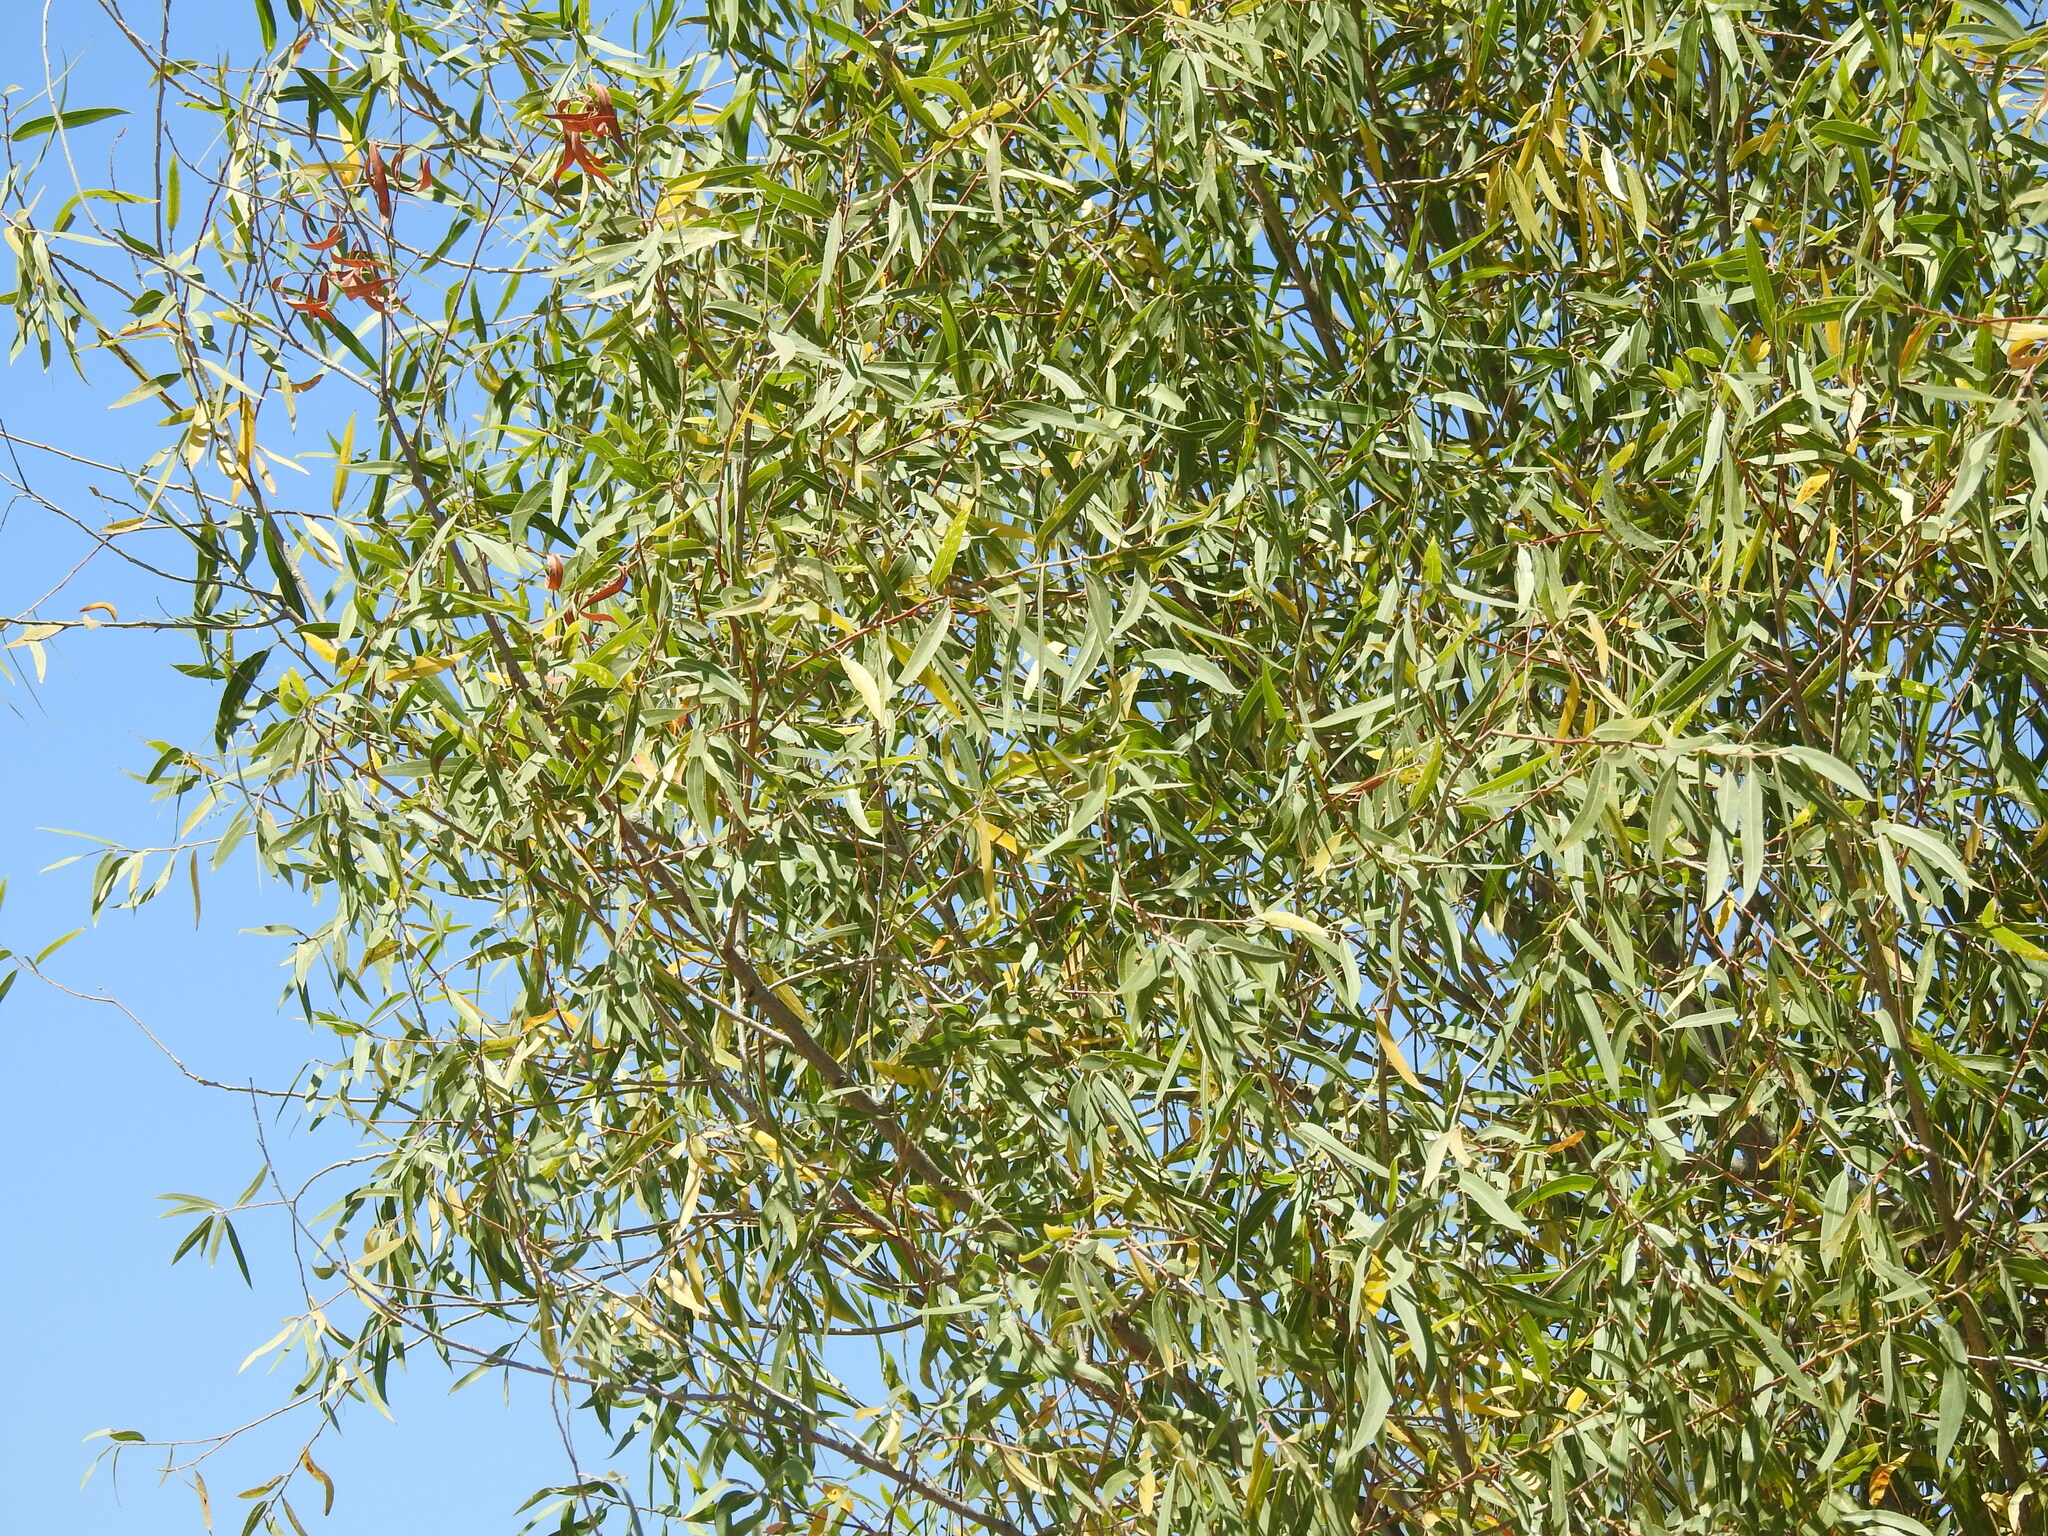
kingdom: Plantae
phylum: Tracheophyta
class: Magnoliopsida
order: Malpighiales
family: Salicaceae
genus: Salix
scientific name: Salix laevigata
